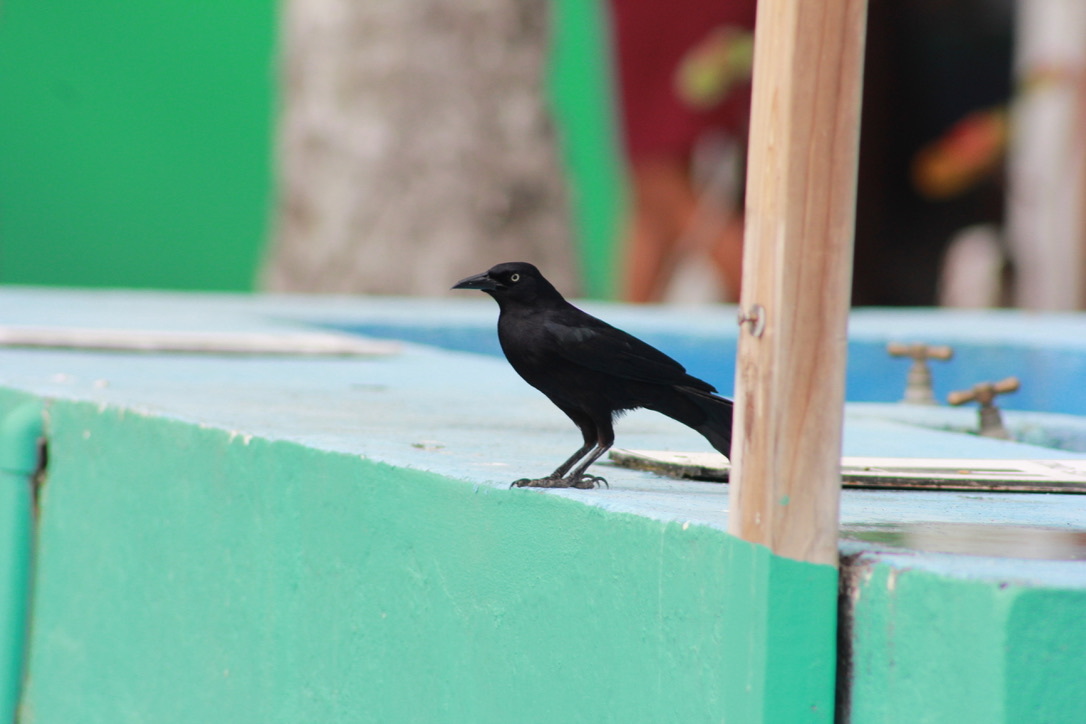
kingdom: Animalia
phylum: Chordata
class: Aves
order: Passeriformes
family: Icteridae
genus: Quiscalus
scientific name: Quiscalus lugubris
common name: Carib grackle
